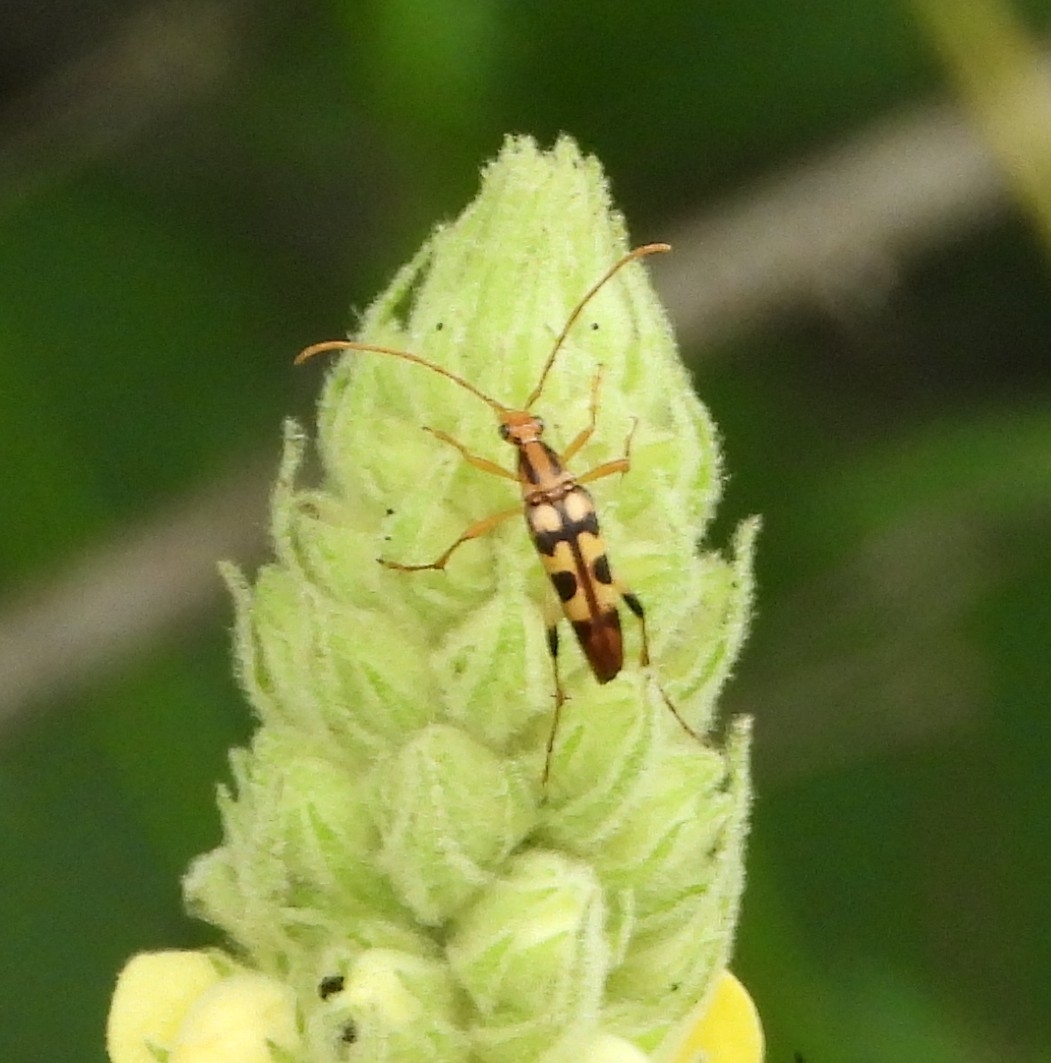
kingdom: Animalia
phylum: Arthropoda
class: Insecta
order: Coleoptera
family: Cerambycidae
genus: Strangalia
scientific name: Strangalia luteicornis
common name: Yellow-horned flower longhorn beetle
